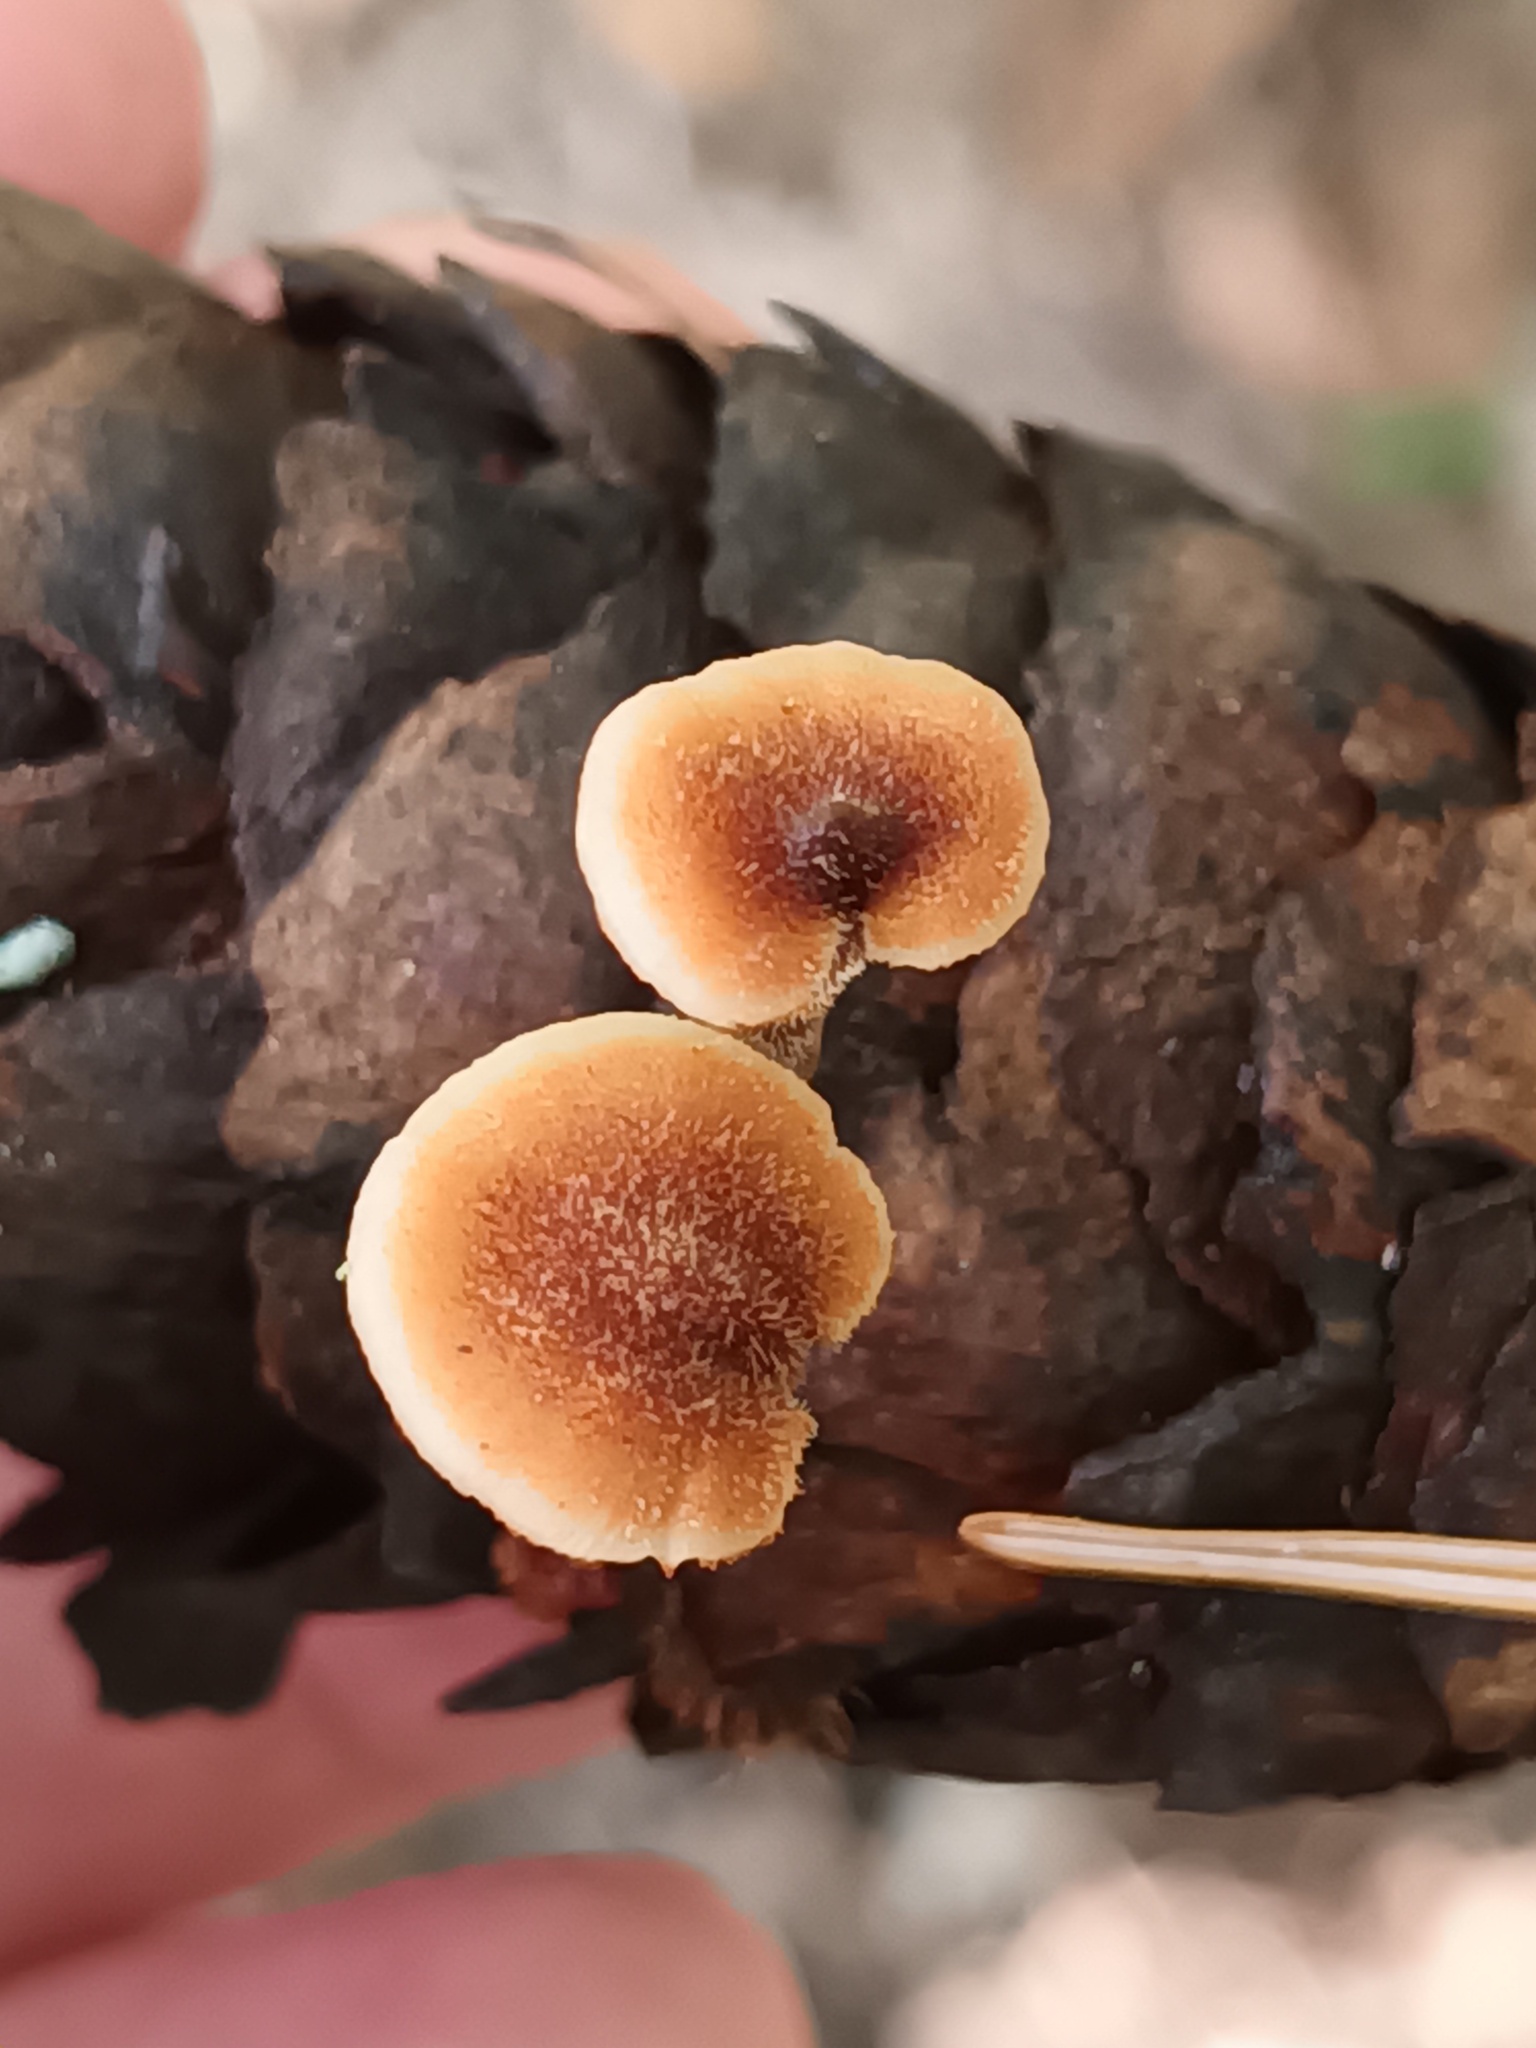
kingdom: Fungi
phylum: Basidiomycota
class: Agaricomycetes
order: Russulales
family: Auriscalpiaceae
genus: Auriscalpium
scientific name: Auriscalpium vulgare
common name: Earpick fungus
